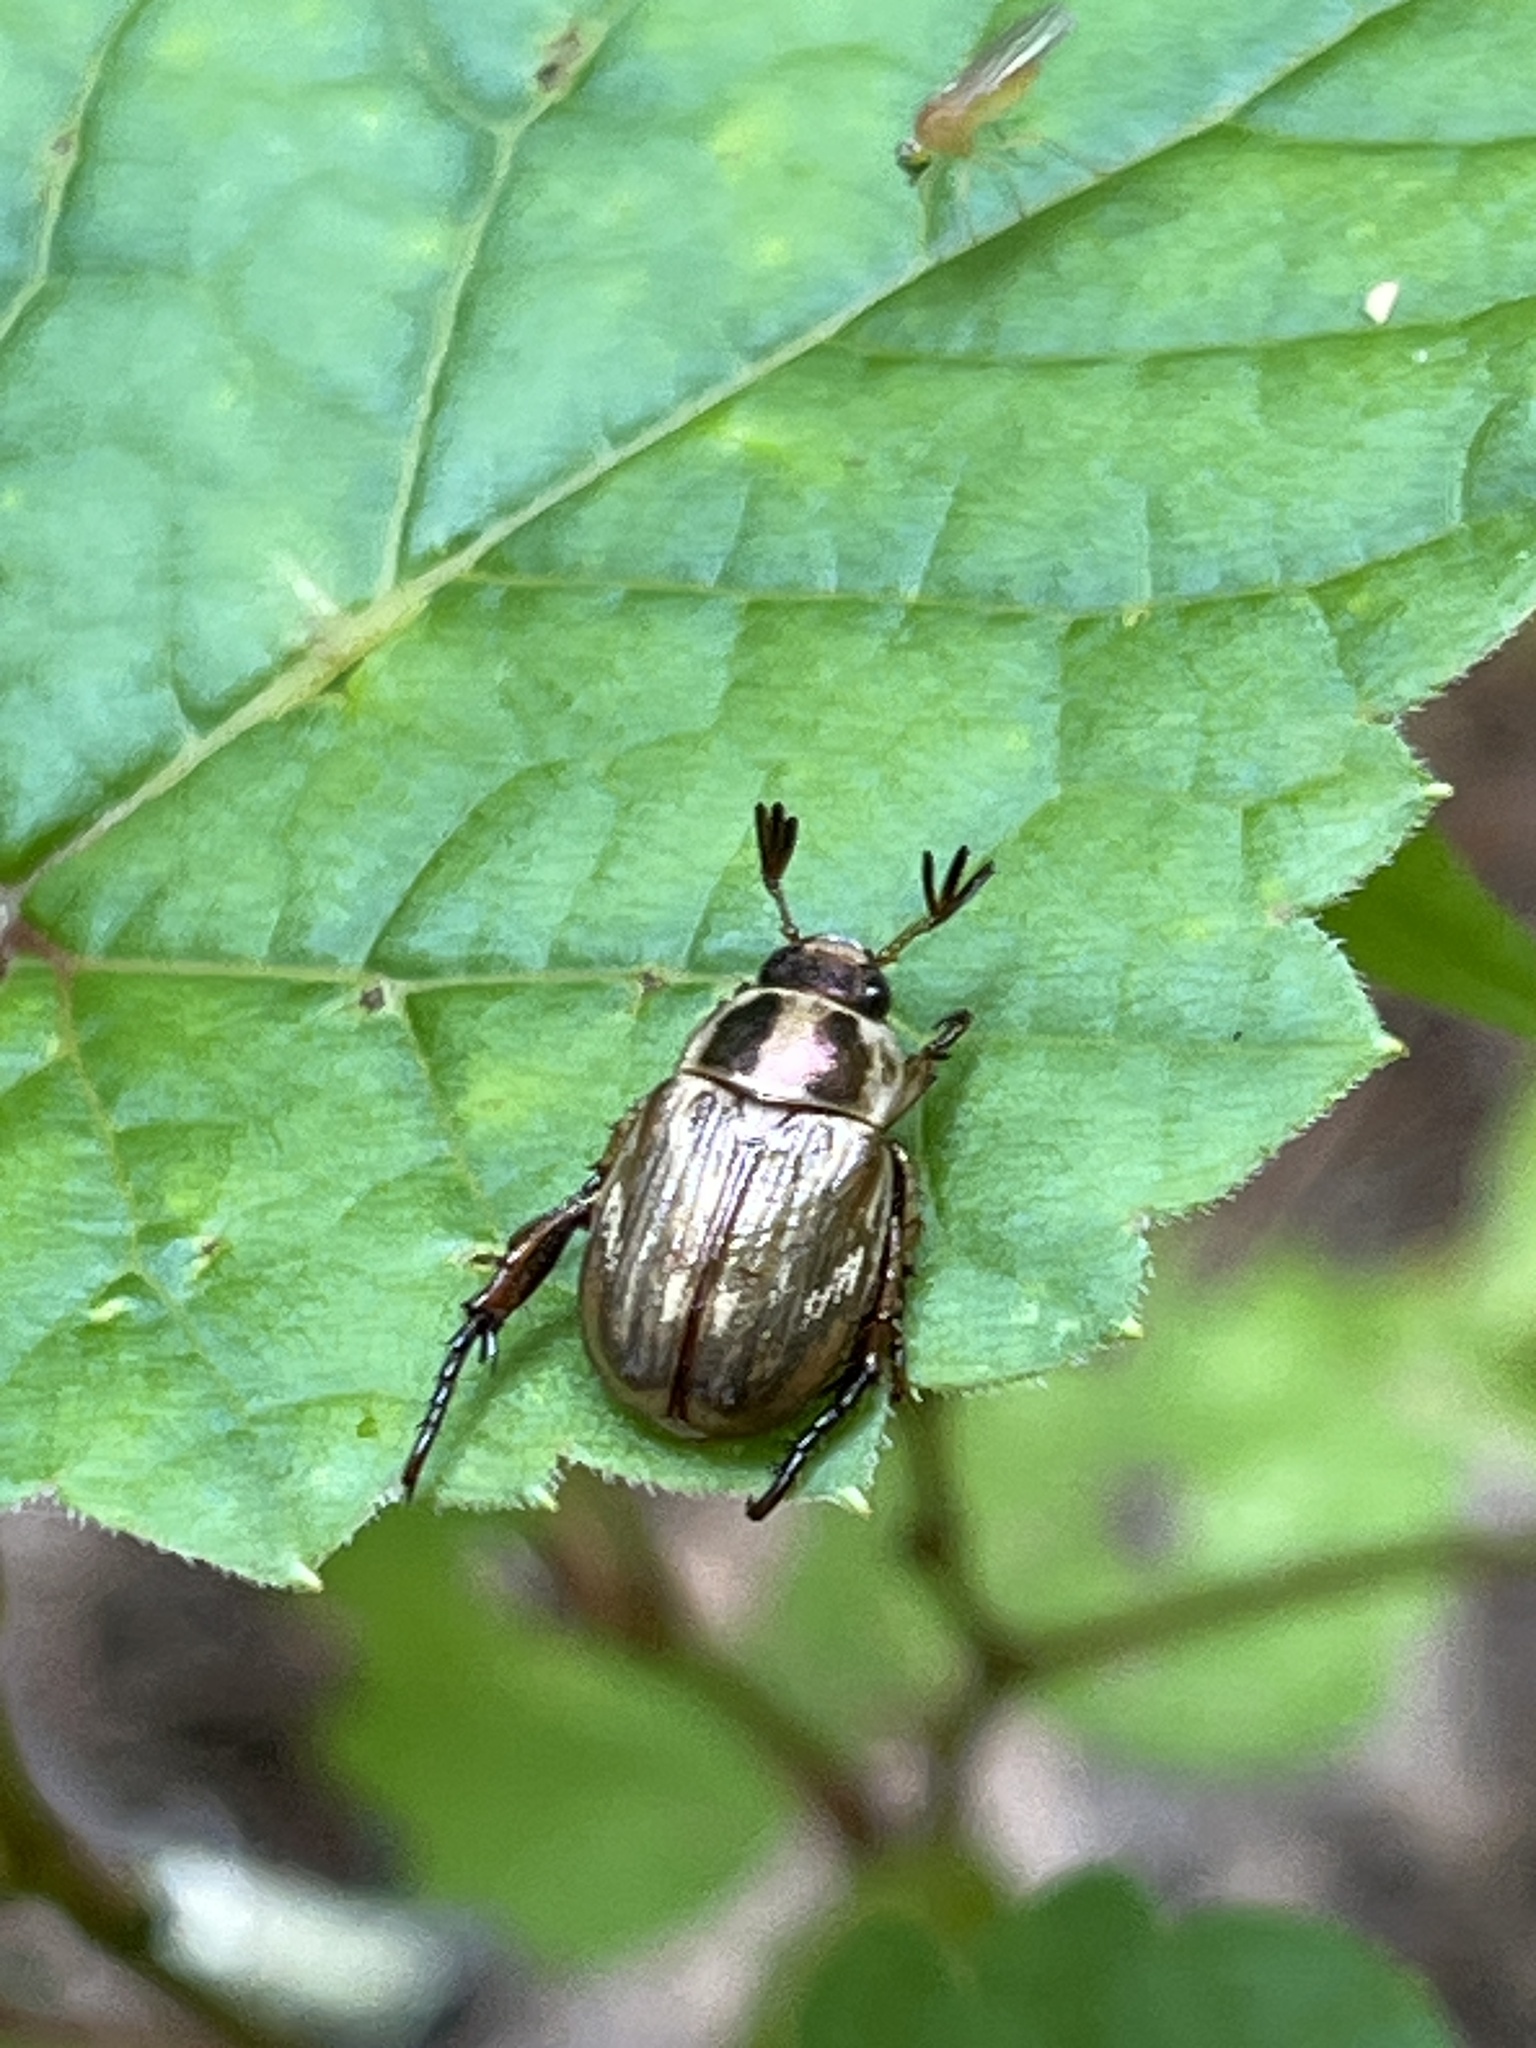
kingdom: Animalia
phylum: Arthropoda
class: Insecta
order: Coleoptera
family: Scarabaeidae
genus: Exomala
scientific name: Exomala orientalis
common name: Oriental beetle
